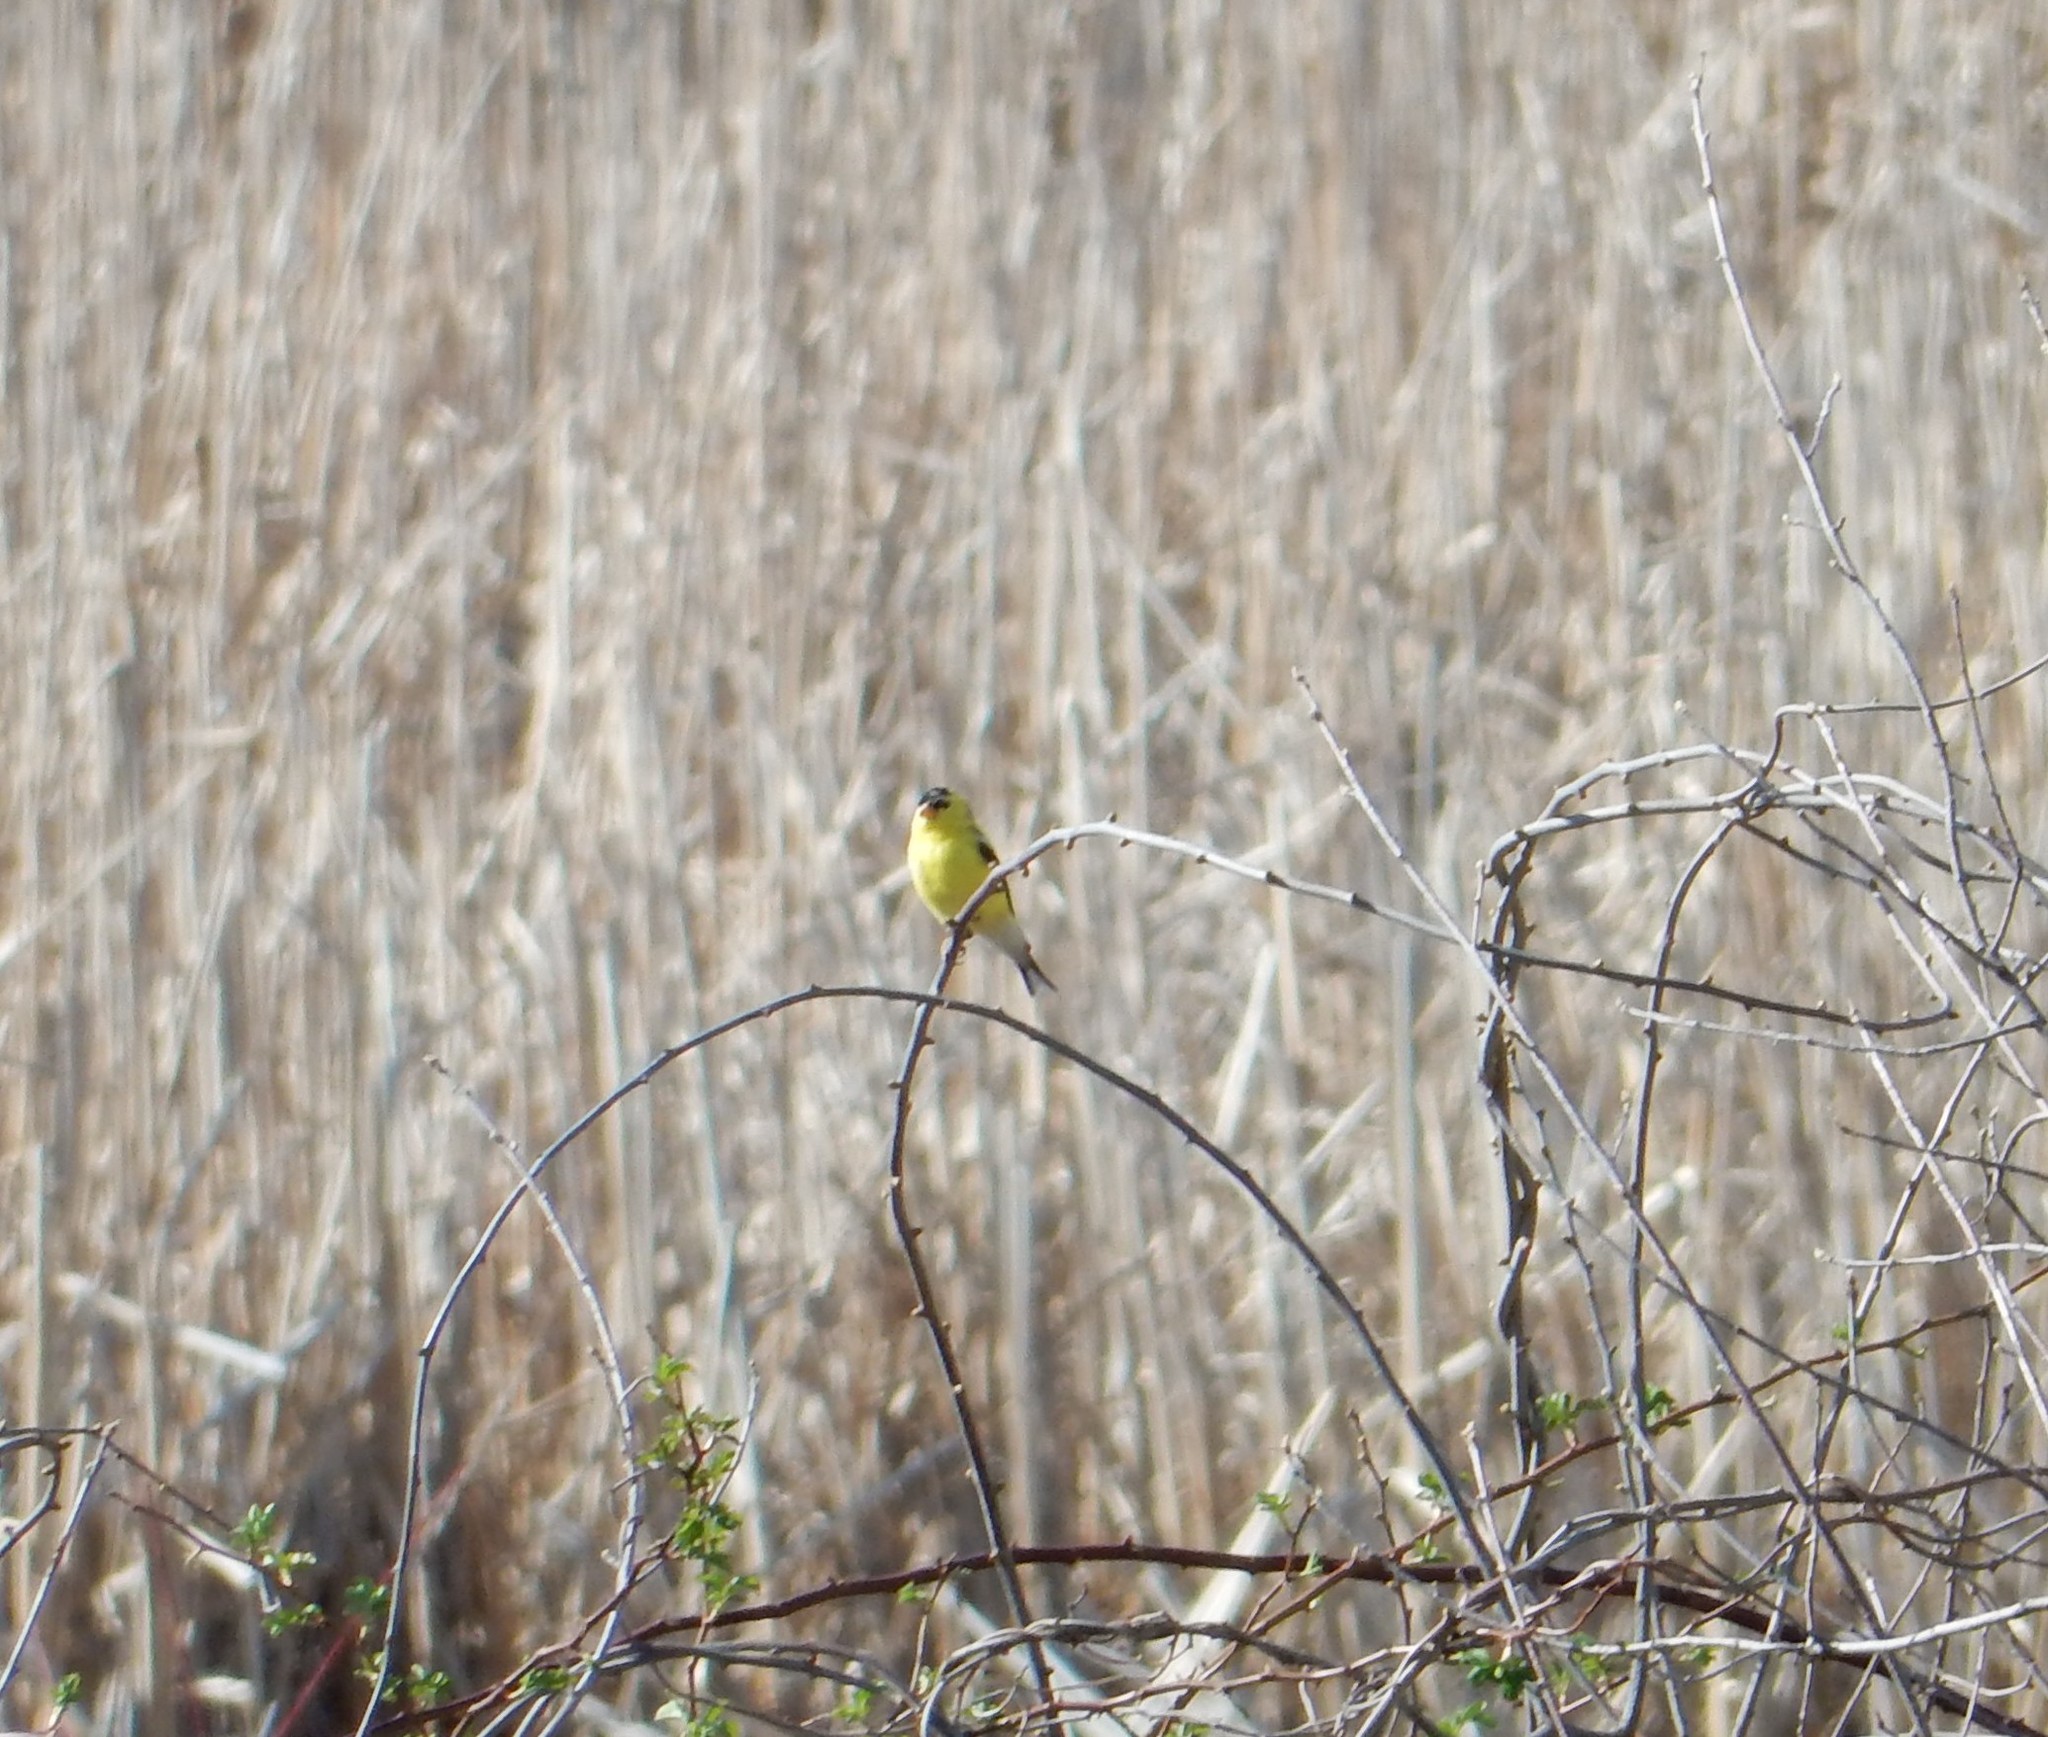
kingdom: Animalia
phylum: Chordata
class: Aves
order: Passeriformes
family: Fringillidae
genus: Spinus
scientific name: Spinus tristis
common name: American goldfinch
